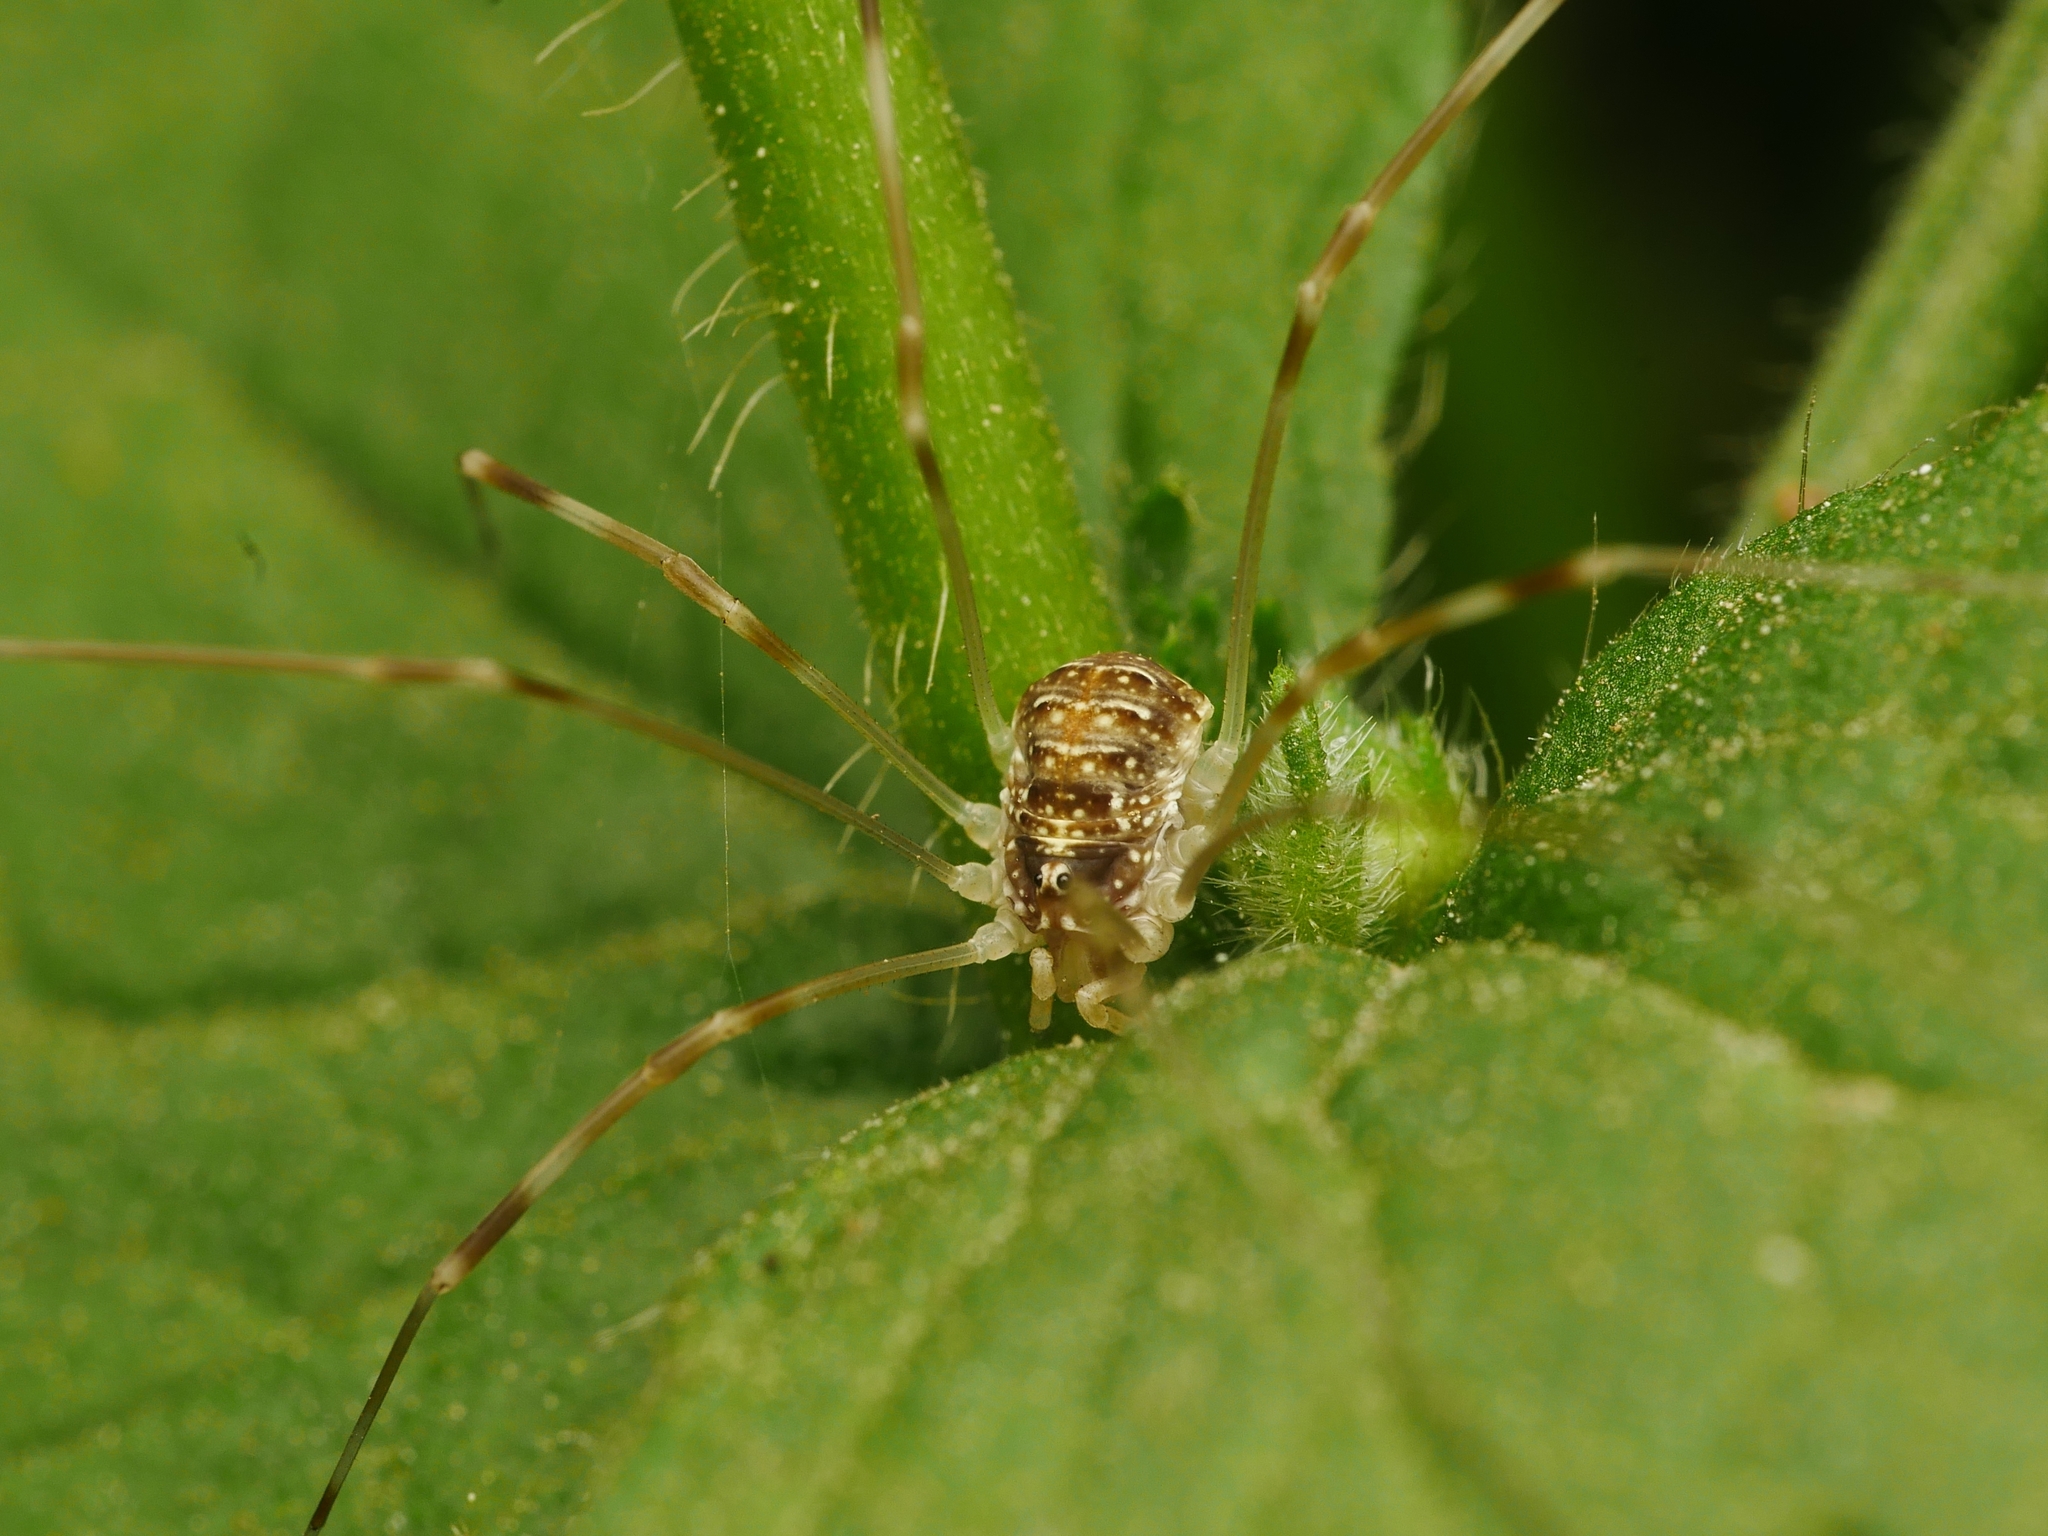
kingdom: Animalia
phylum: Arthropoda
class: Arachnida
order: Opiliones
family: Phalangiidae
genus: Opilio
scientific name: Opilio canestrinii
